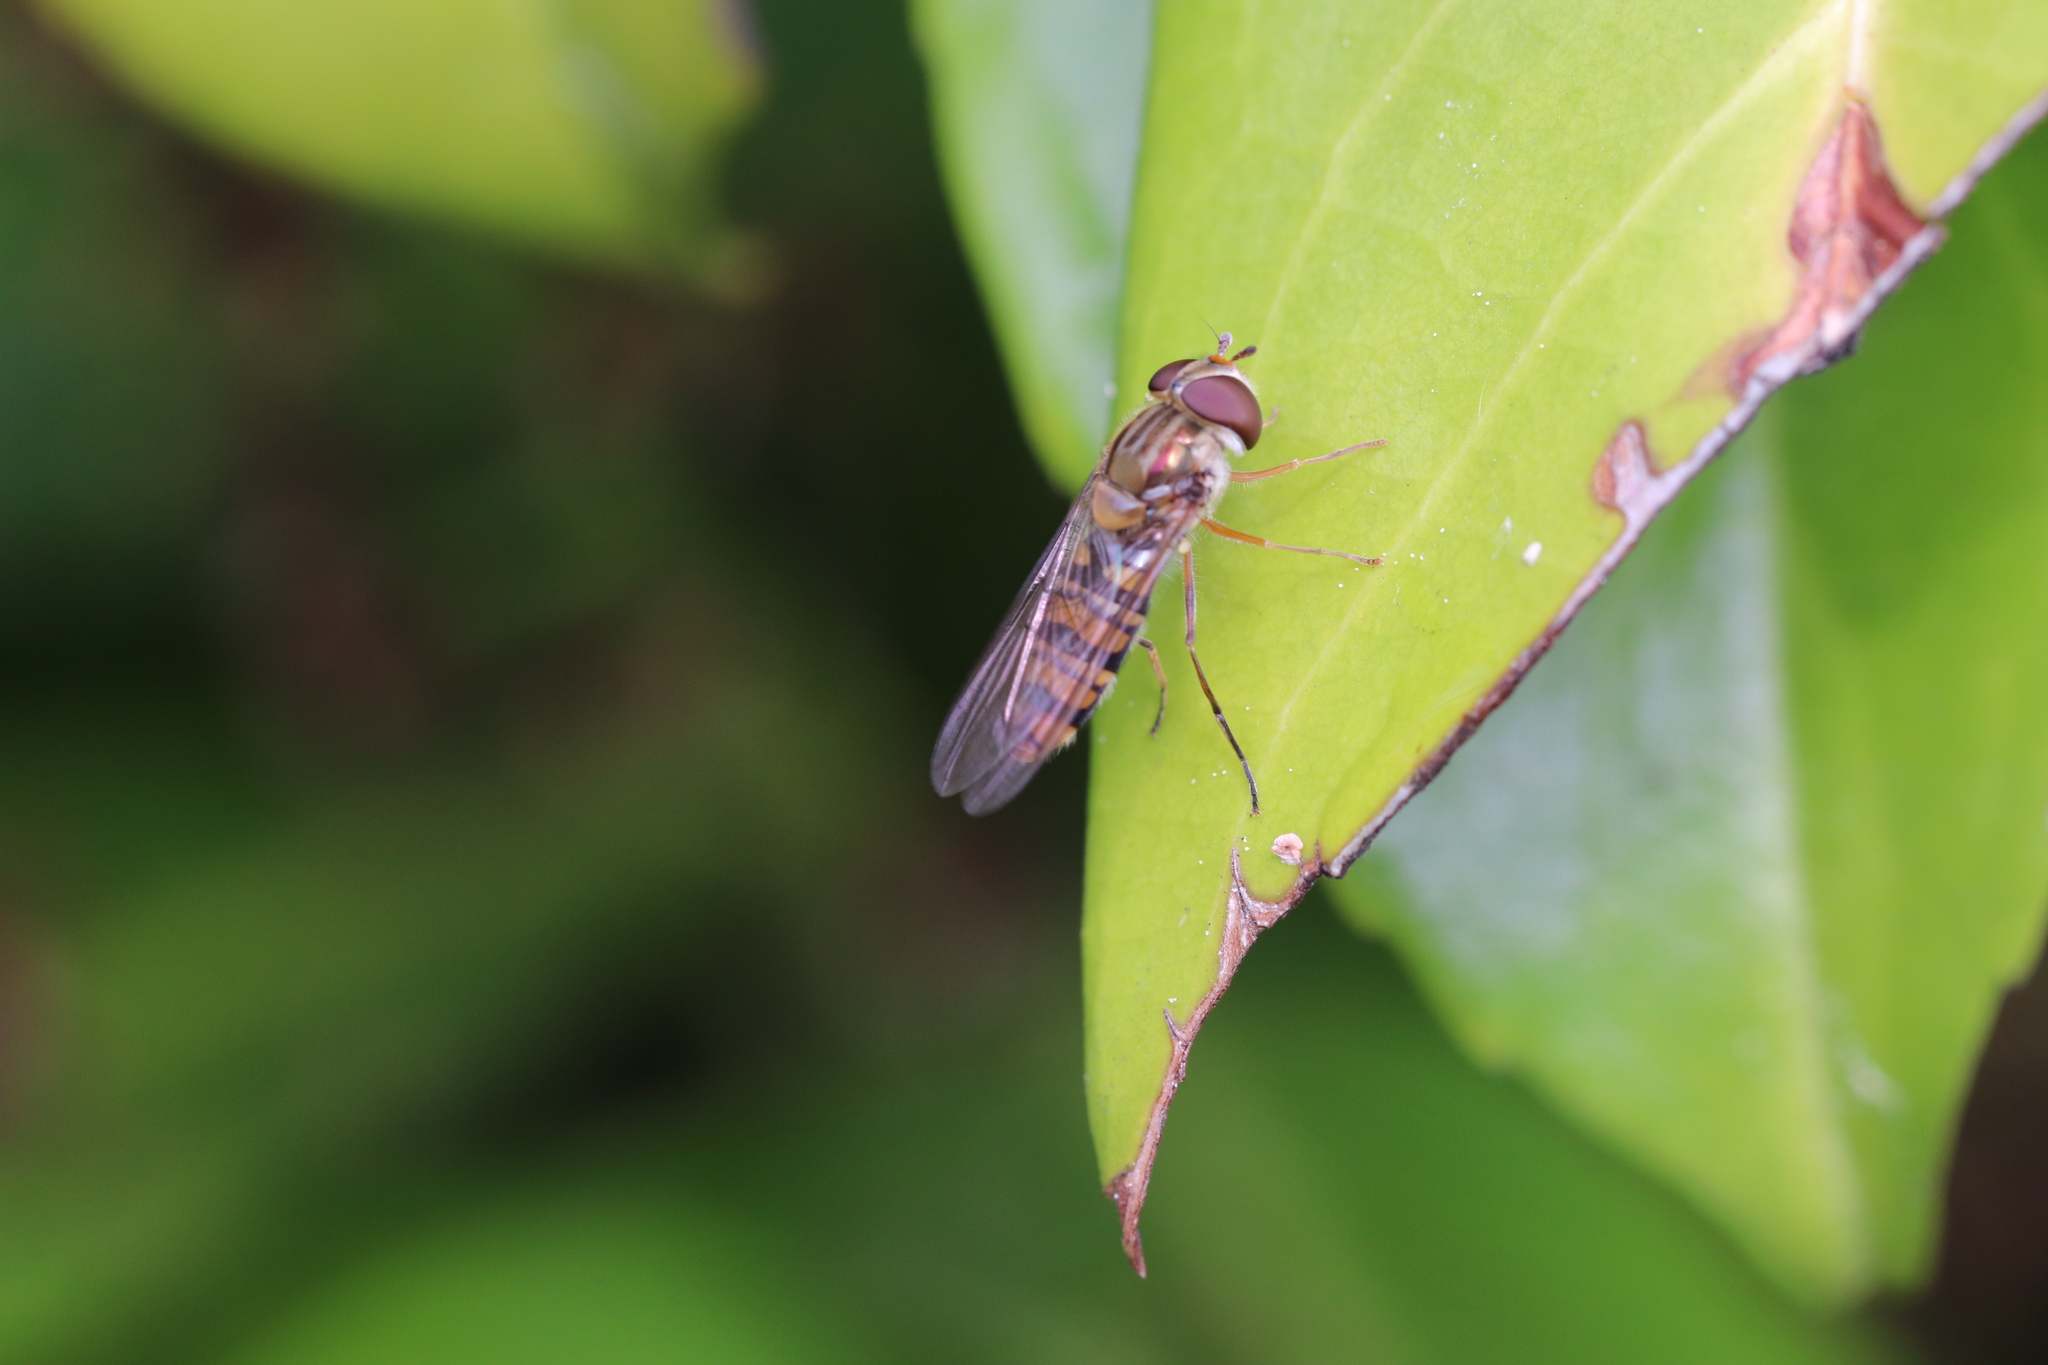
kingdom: Animalia
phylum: Arthropoda
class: Insecta
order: Diptera
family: Syrphidae
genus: Episyrphus
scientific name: Episyrphus balteatus
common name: Marmalade hoverfly
